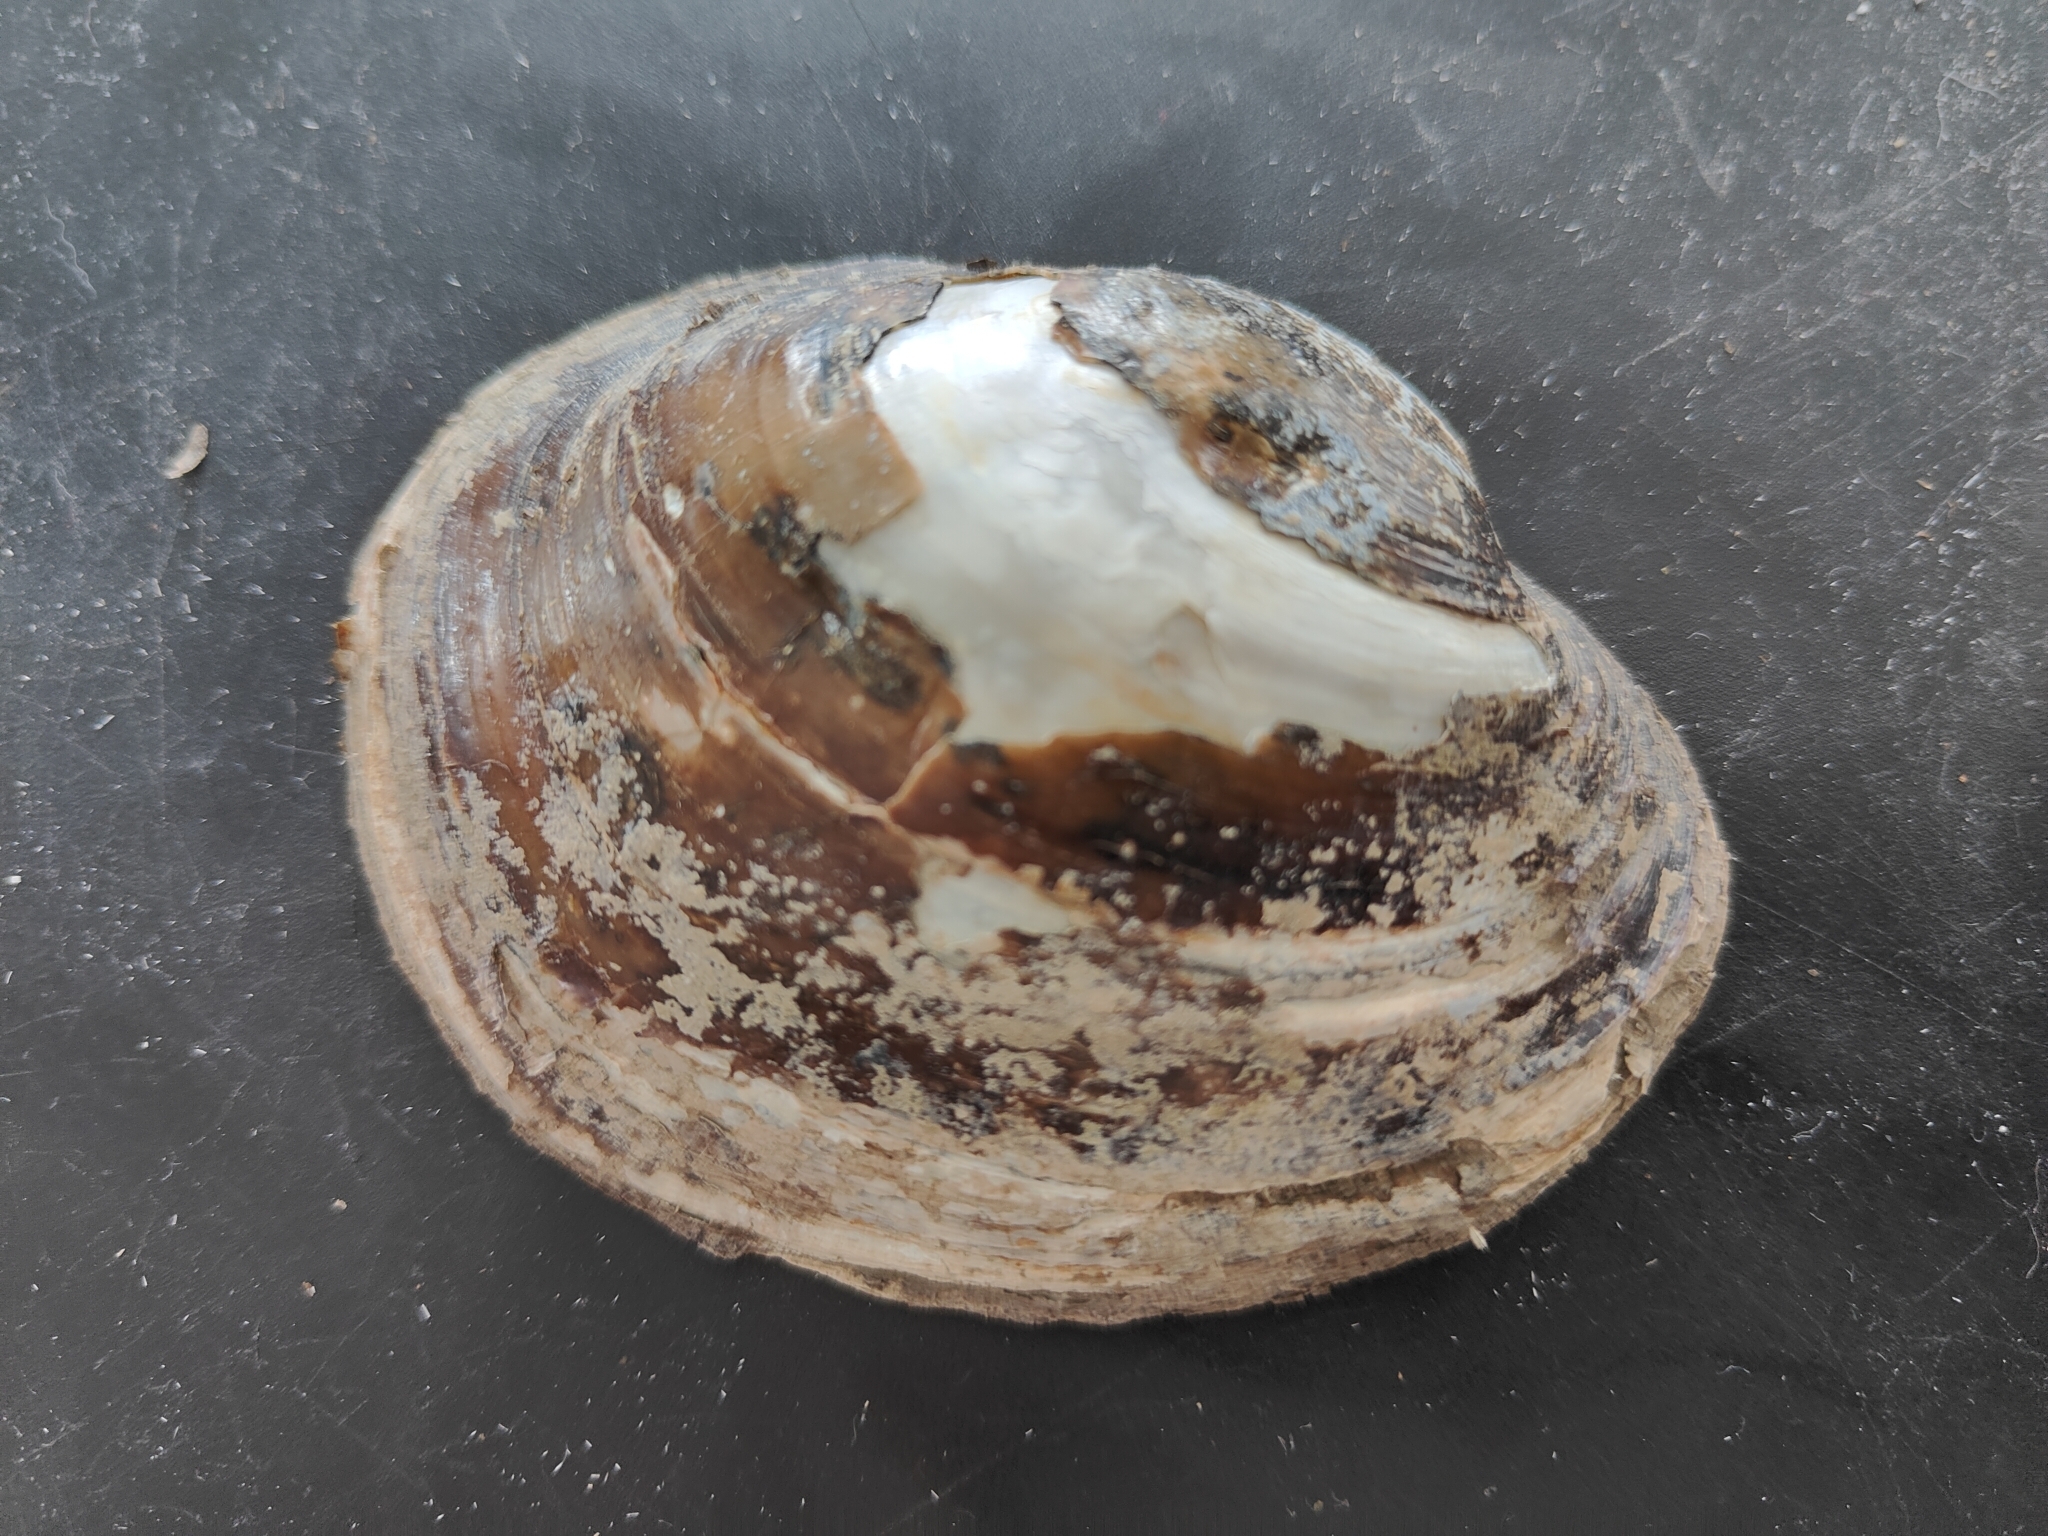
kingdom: Animalia
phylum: Mollusca
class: Bivalvia
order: Unionida
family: Unionidae
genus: Lampsilis
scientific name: Lampsilis cardium
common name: Plain pocketbook
